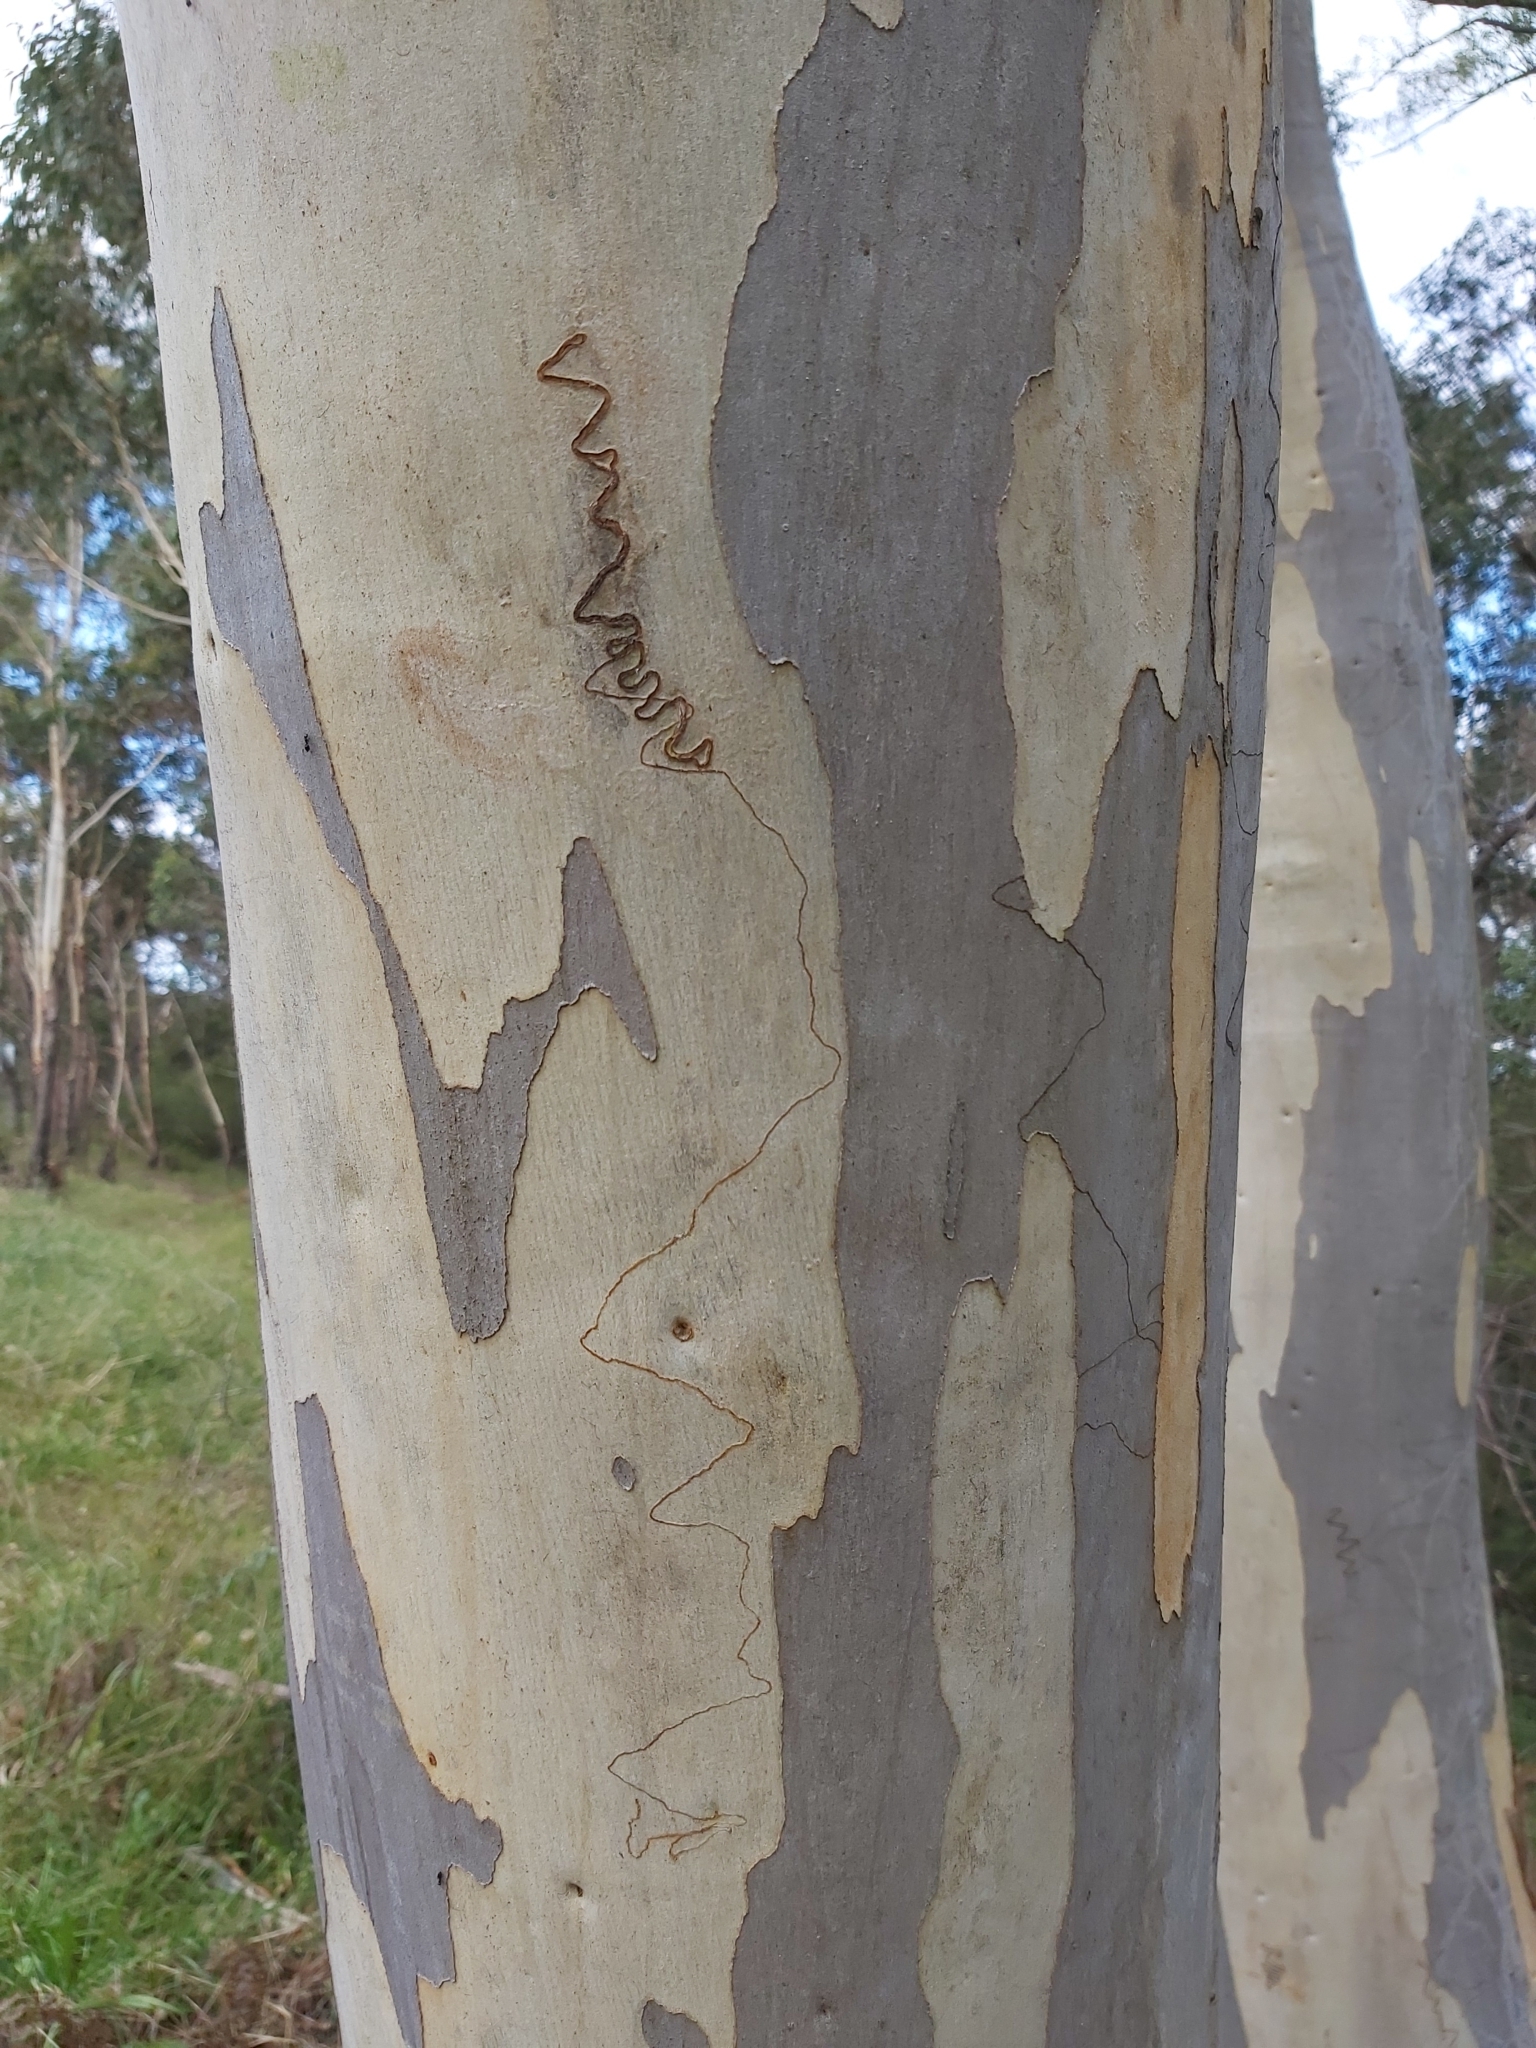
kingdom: Animalia
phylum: Arthropoda
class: Insecta
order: Lepidoptera
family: Bucculatricidae
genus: Ogmograptis
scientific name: Ogmograptis scribula
